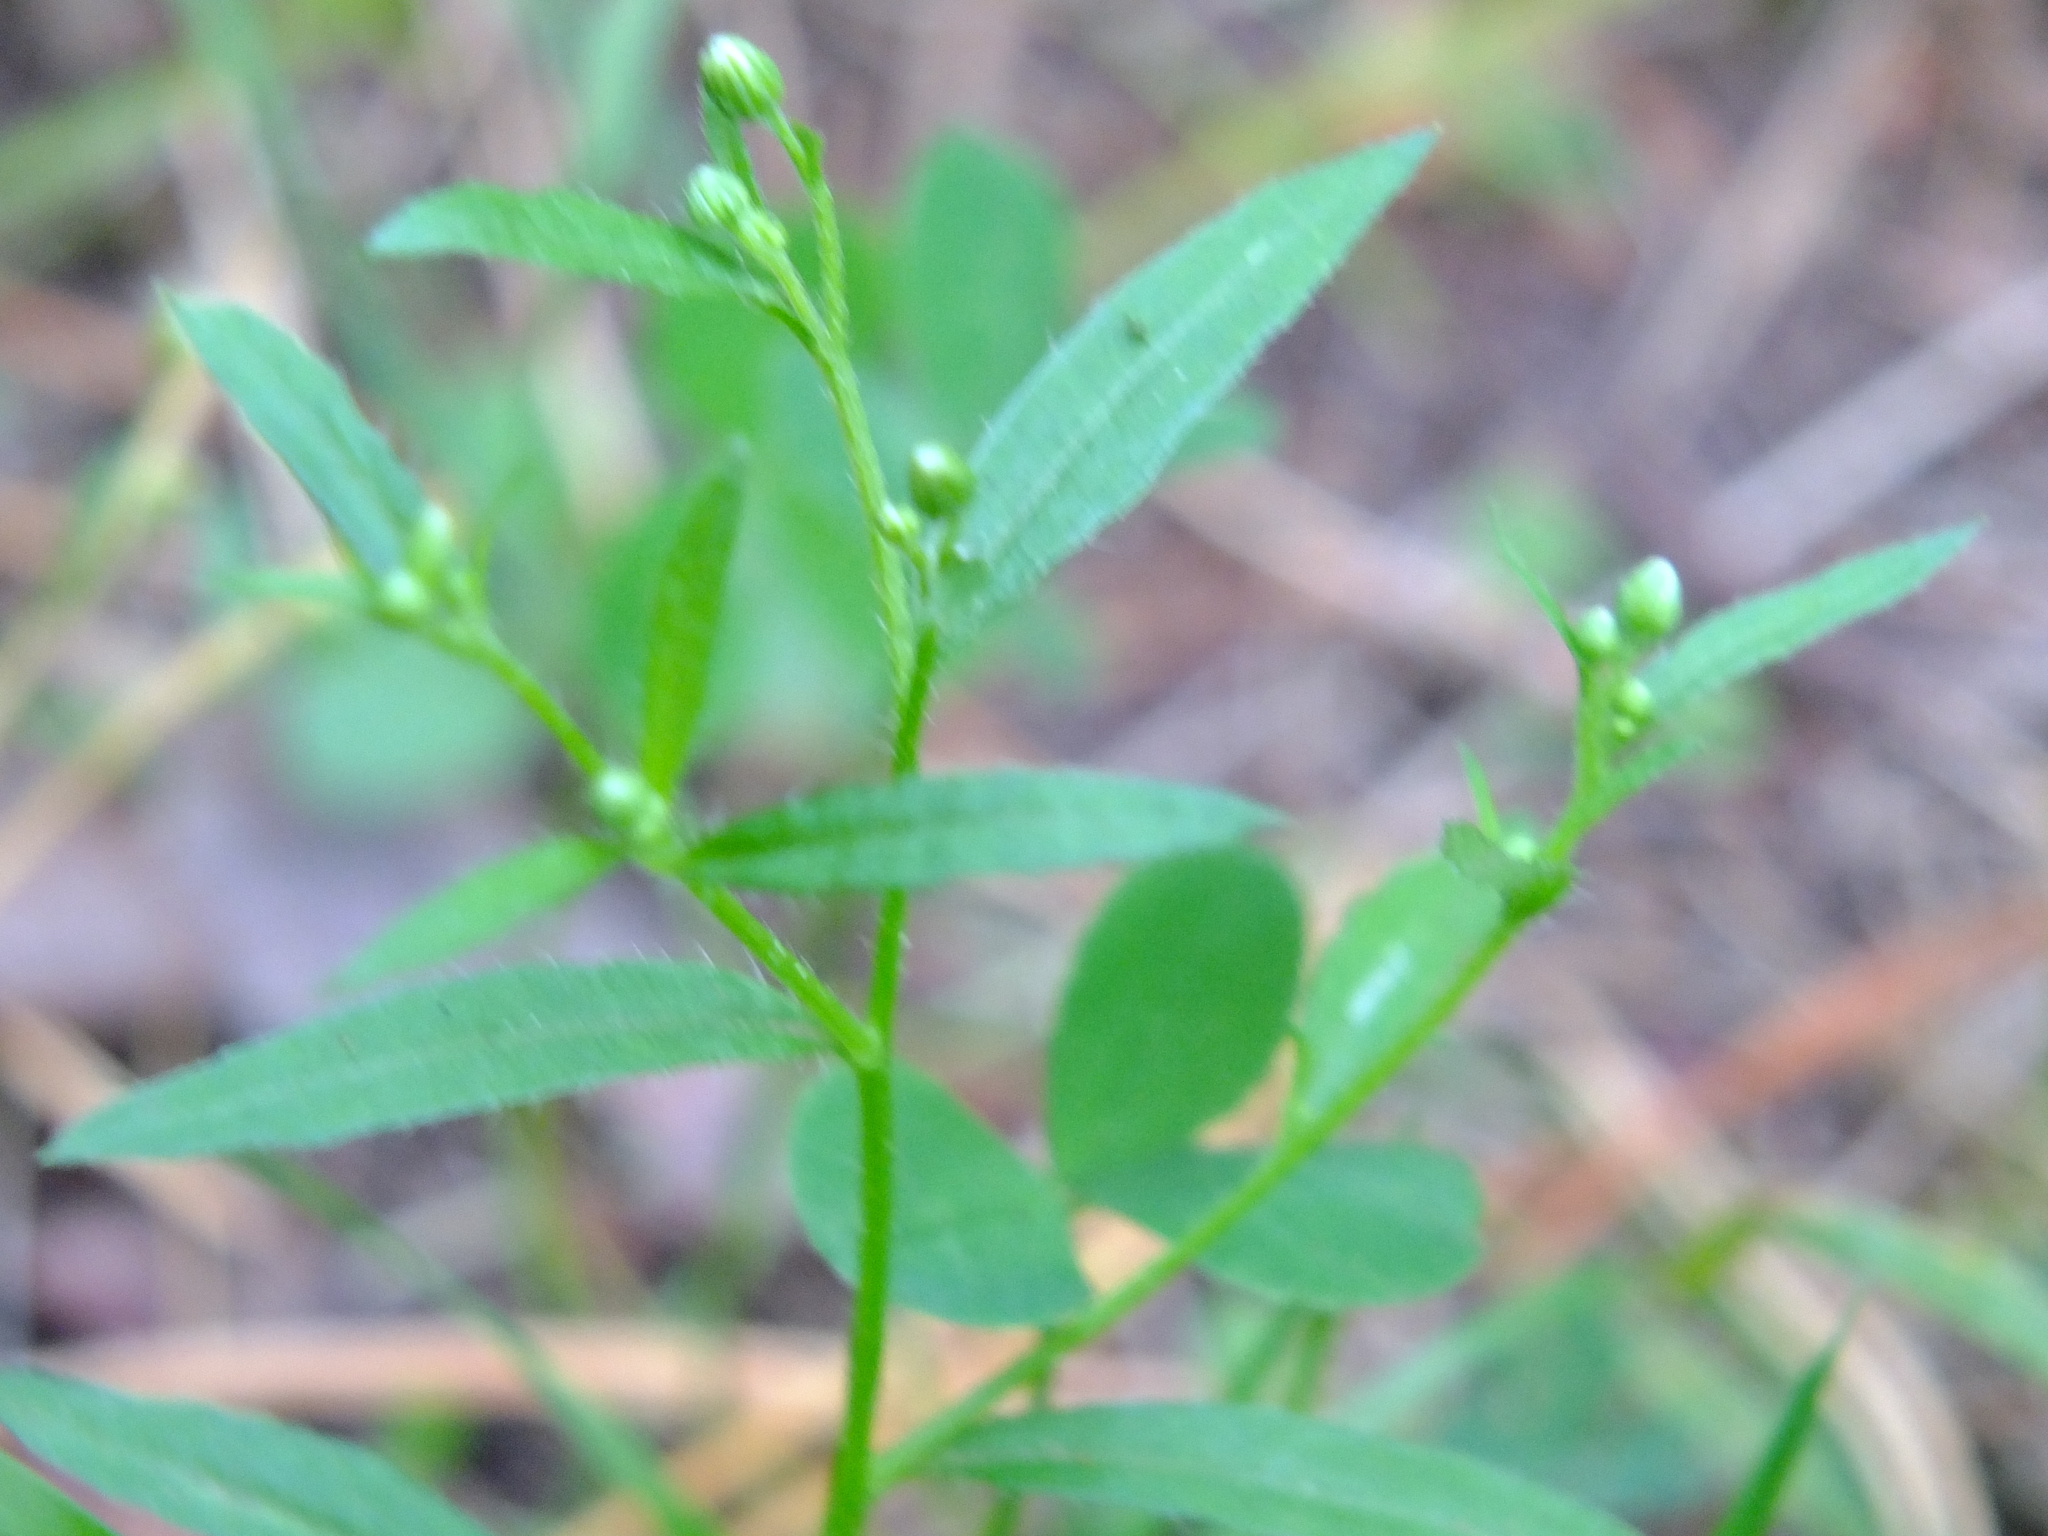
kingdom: Plantae
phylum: Tracheophyta
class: Magnoliopsida
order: Asterales
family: Asteraceae
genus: Erigeron
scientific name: Erigeron canadensis
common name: Canadian fleabane
